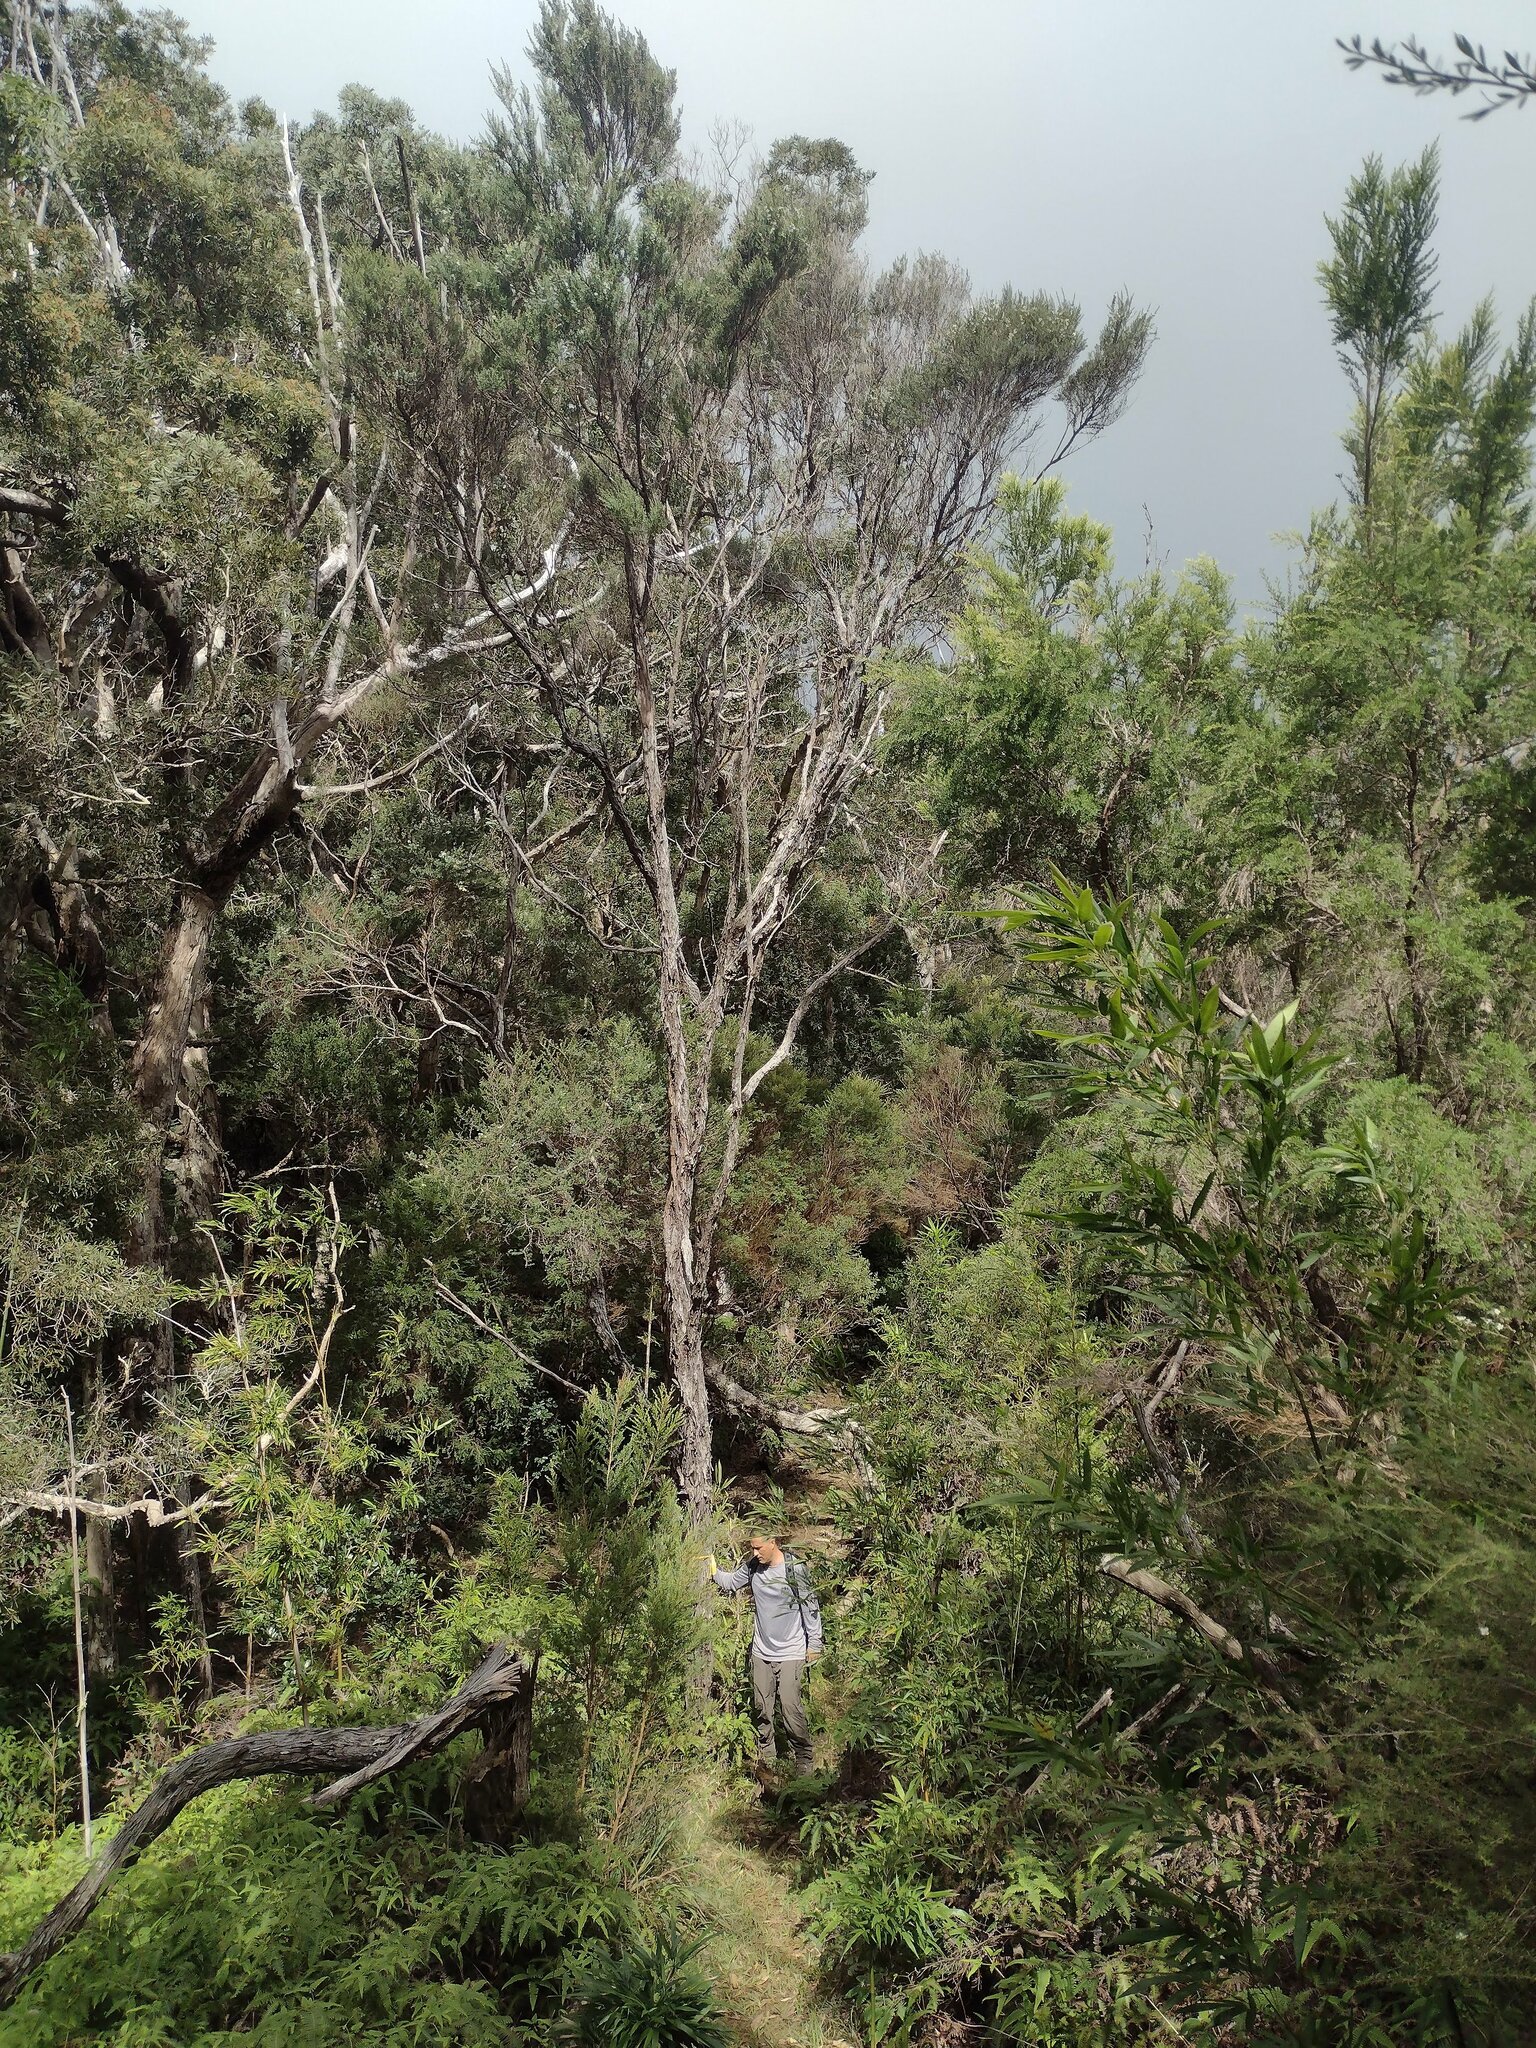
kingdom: Plantae
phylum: Tracheophyta
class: Magnoliopsida
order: Myrtales
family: Myrtaceae
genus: Leptospermum
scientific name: Leptospermum scoparium
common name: Broom tea-tree
